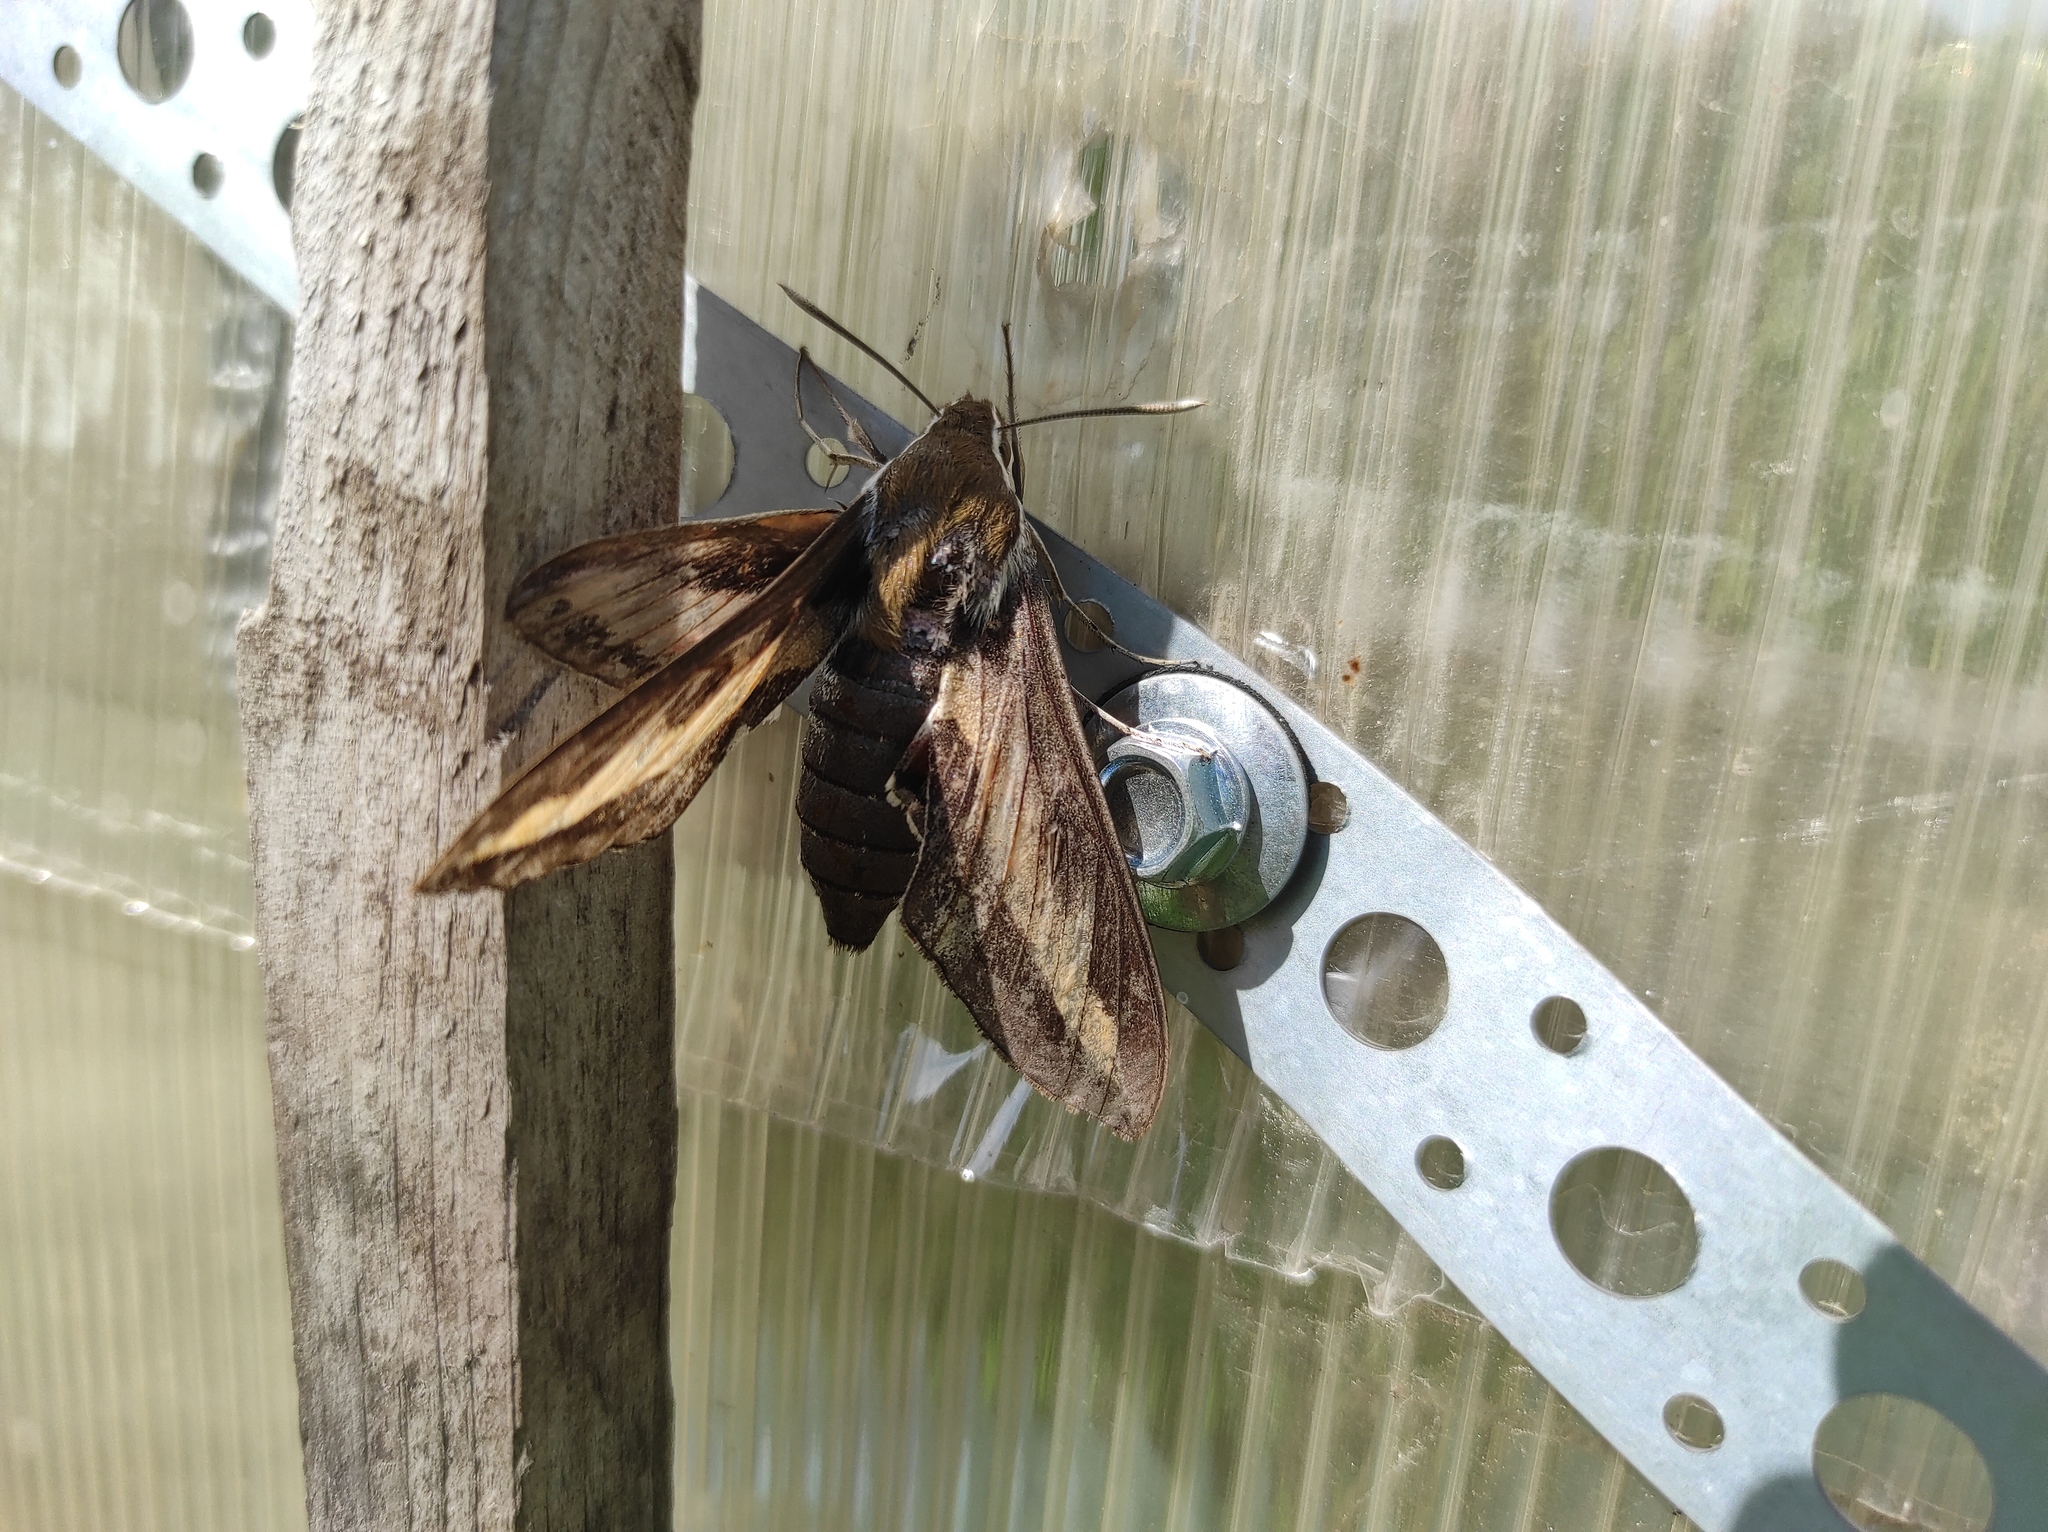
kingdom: Animalia
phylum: Arthropoda
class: Insecta
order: Lepidoptera
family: Sphingidae
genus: Hyles
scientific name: Hyles gallii
